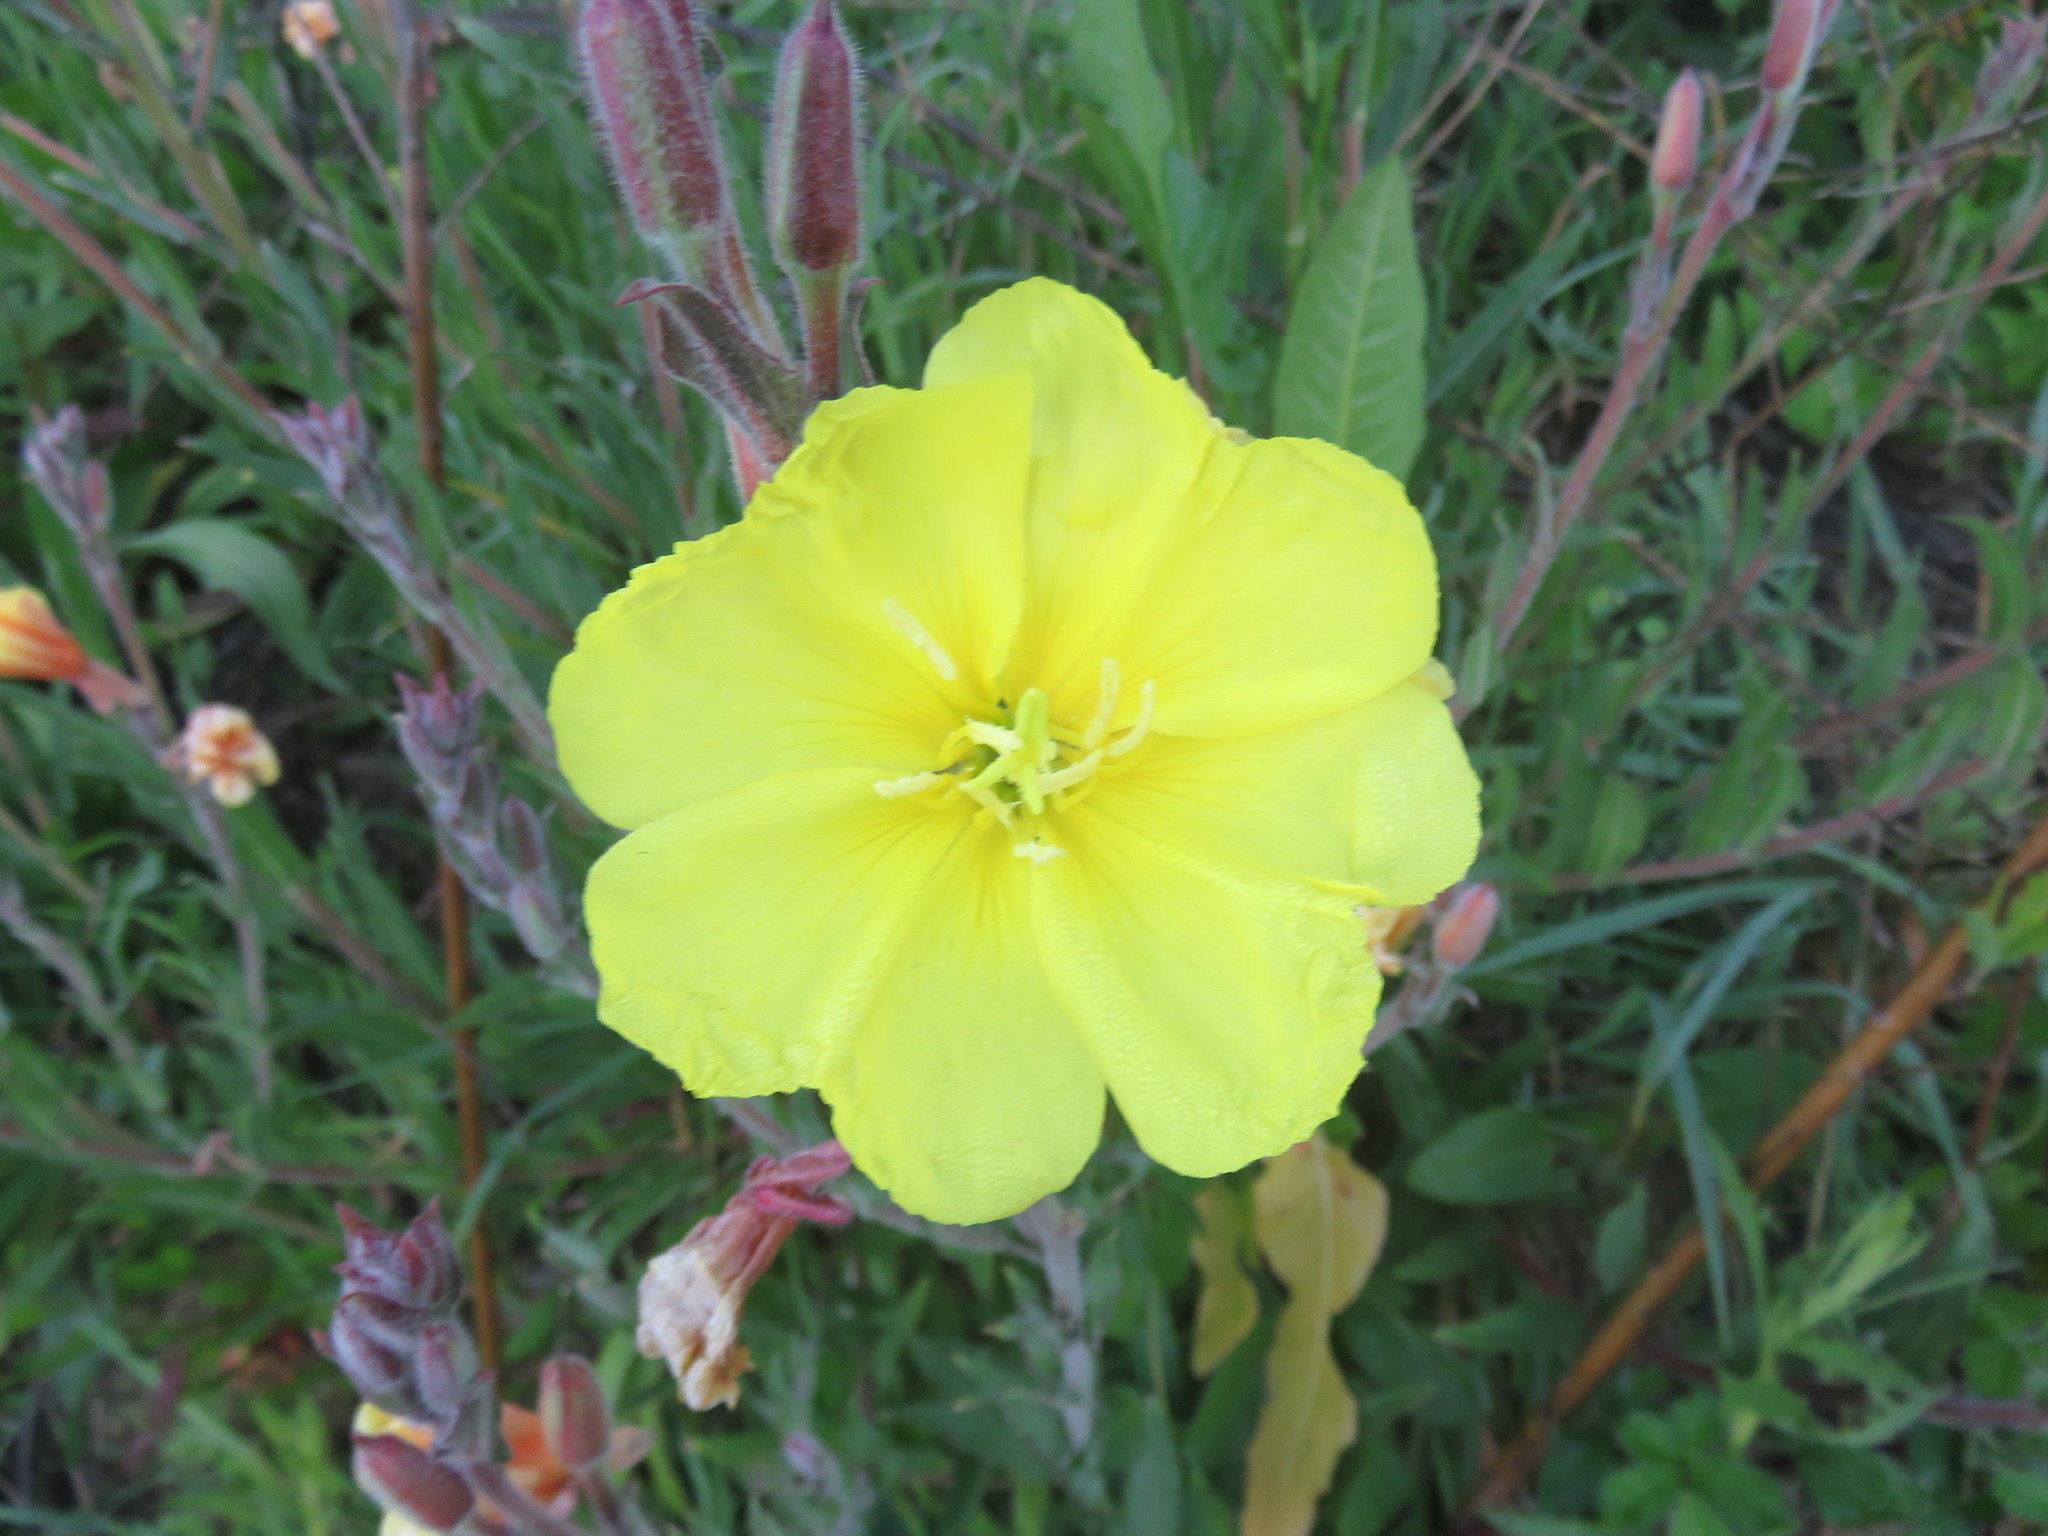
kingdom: Plantae
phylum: Tracheophyta
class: Magnoliopsida
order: Myrtales
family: Onagraceae
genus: Oenothera
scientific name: Oenothera stricta
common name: Fragrant evening-primrose
